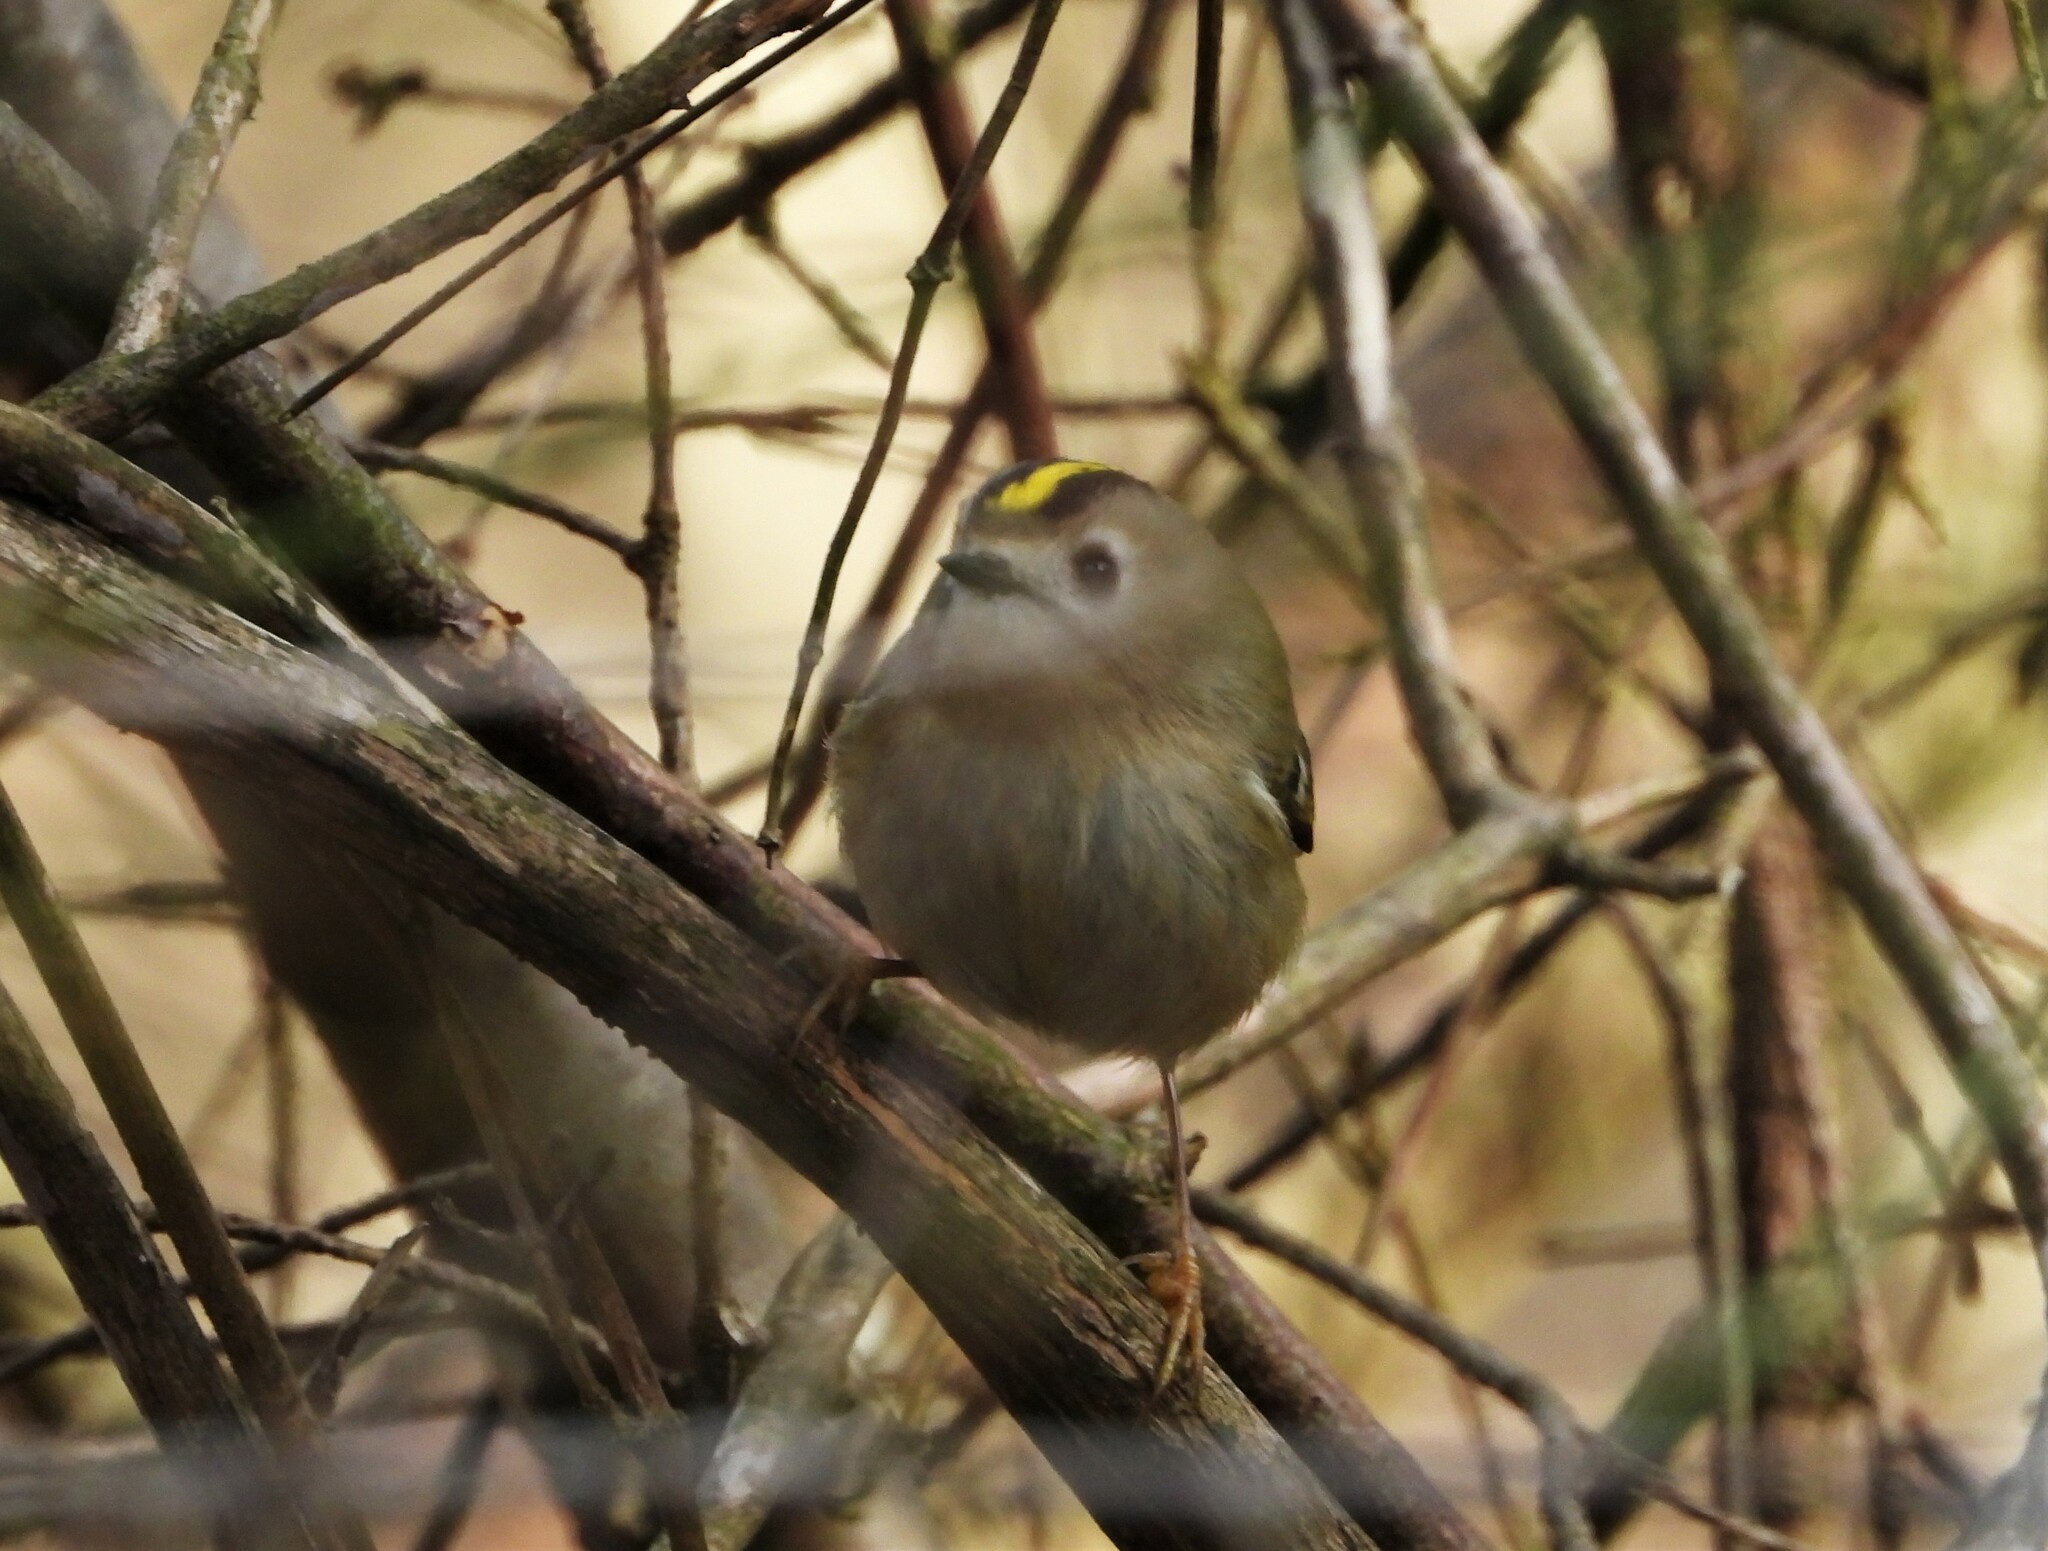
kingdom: Animalia
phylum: Chordata
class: Aves
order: Passeriformes
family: Regulidae
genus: Regulus
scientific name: Regulus regulus
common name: Goldcrest
